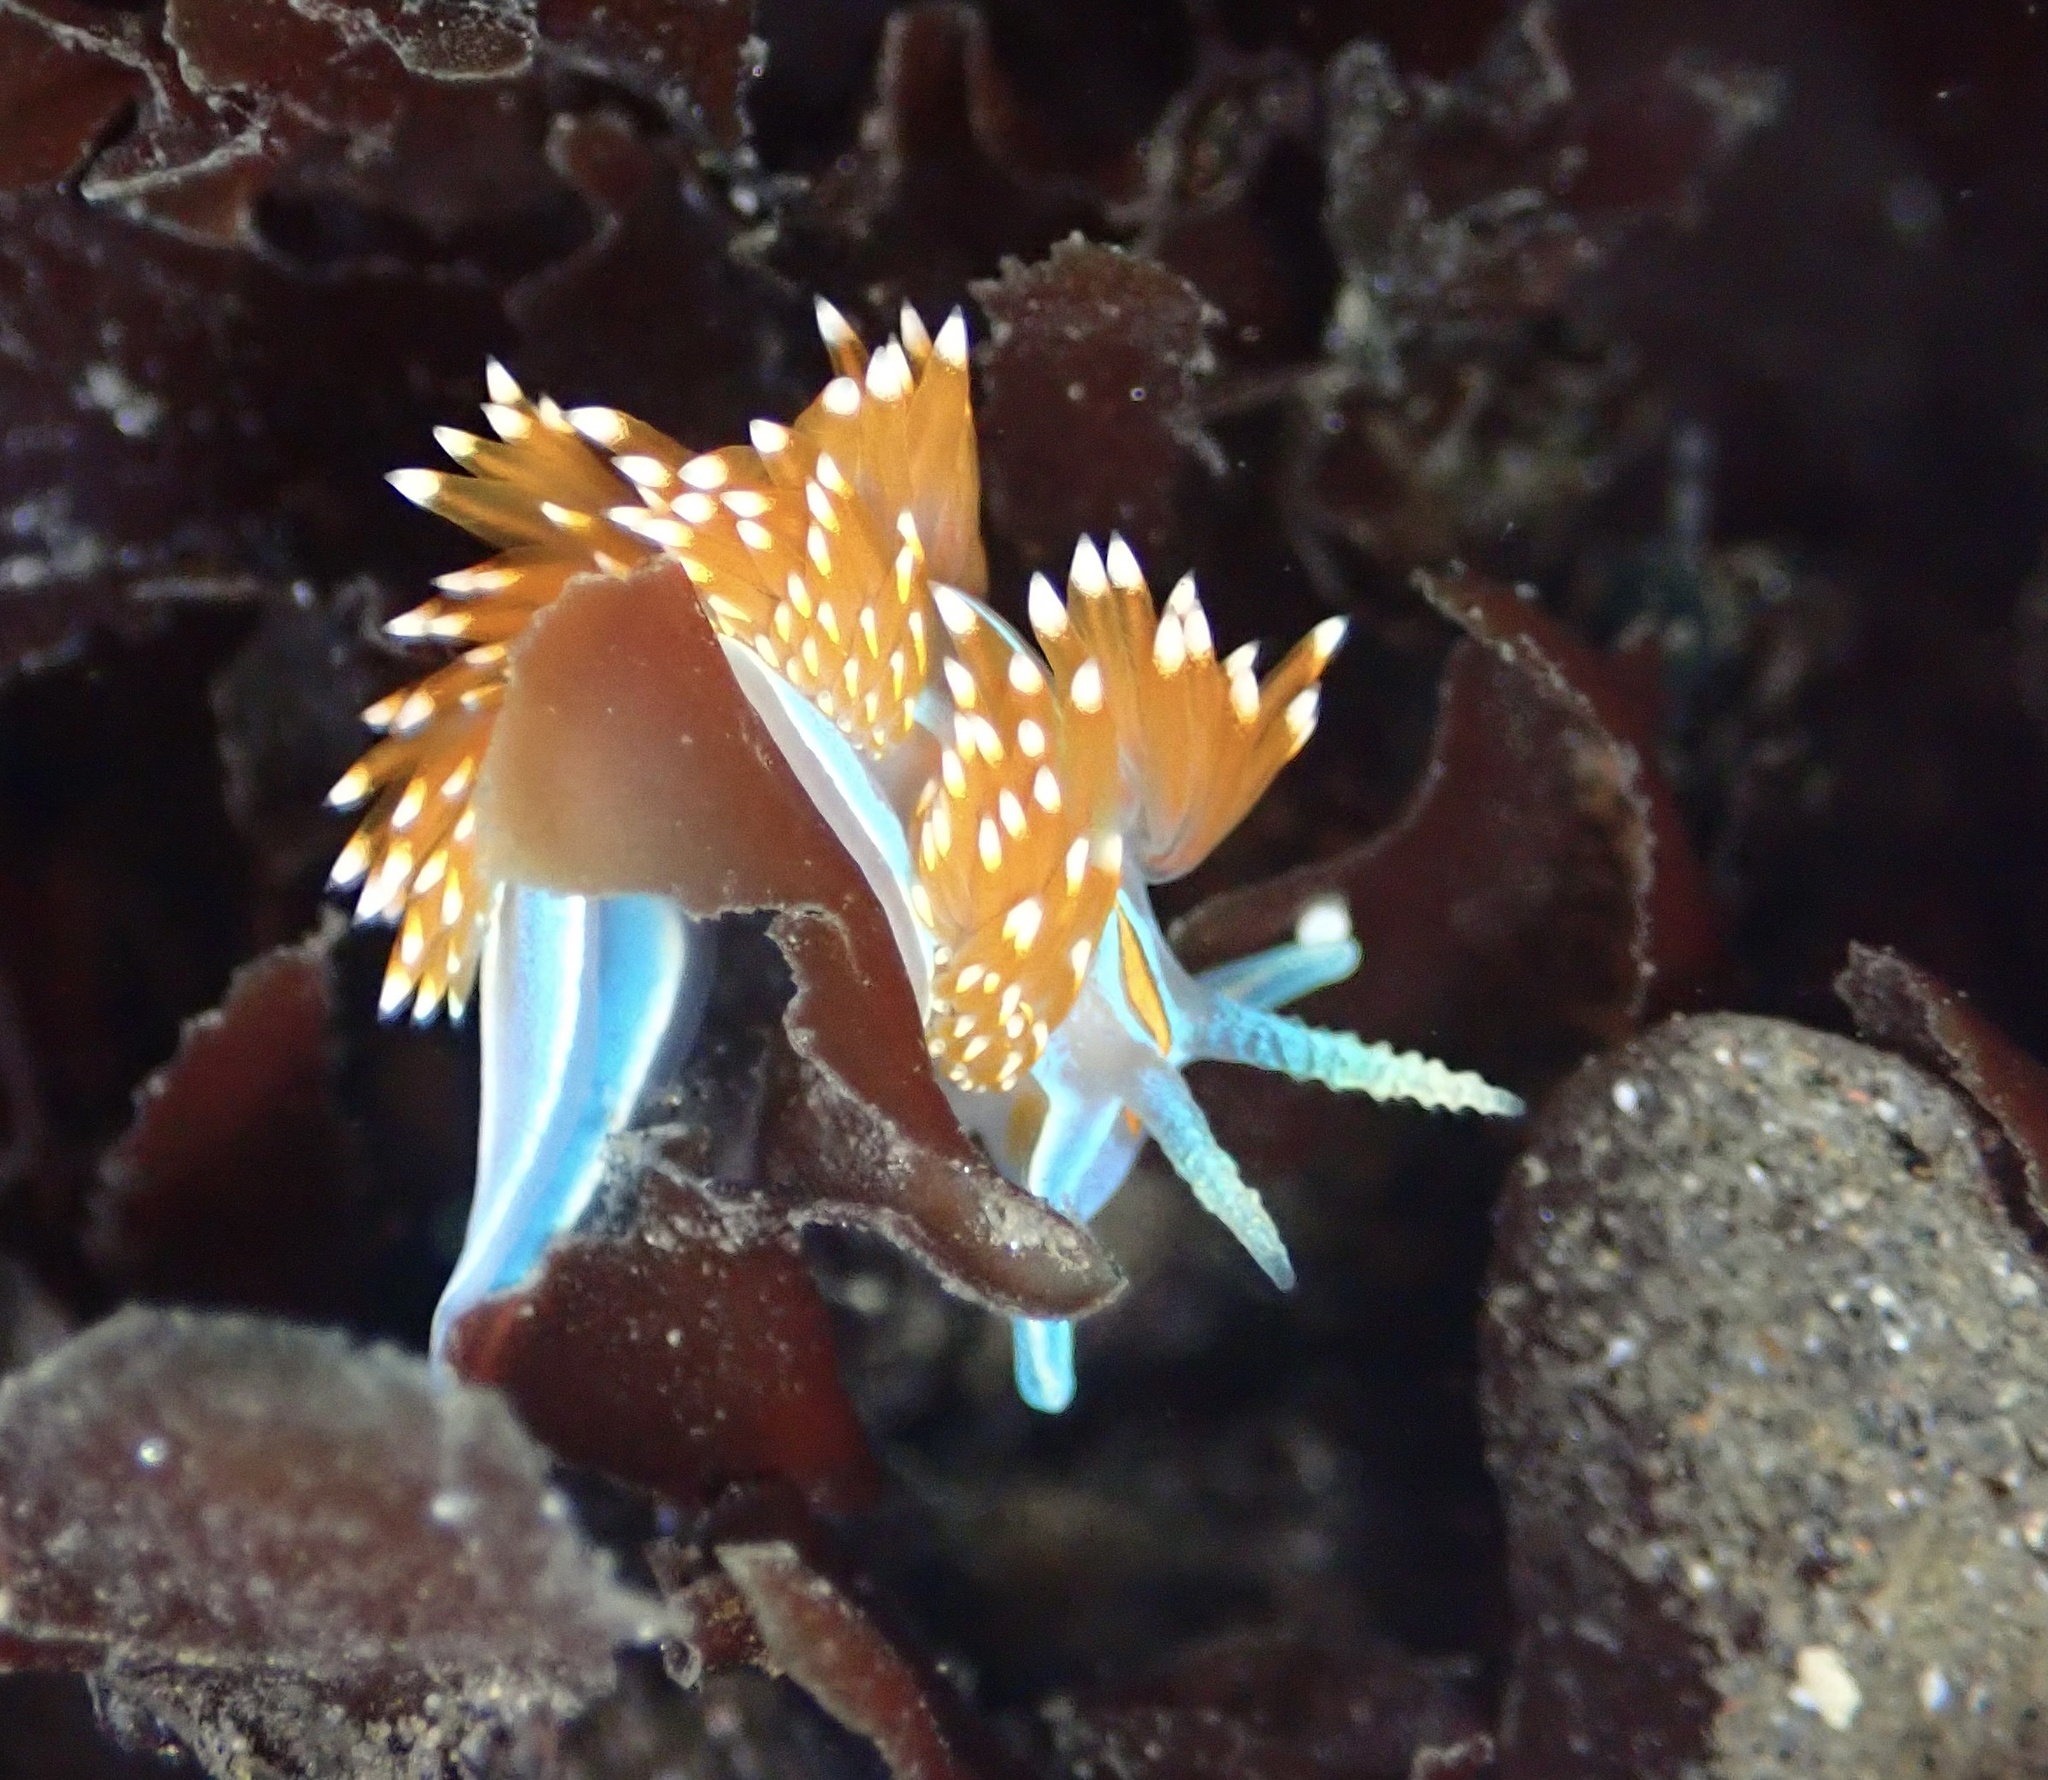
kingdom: Animalia
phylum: Mollusca
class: Gastropoda
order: Nudibranchia
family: Myrrhinidae
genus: Hermissenda
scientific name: Hermissenda opalescens
